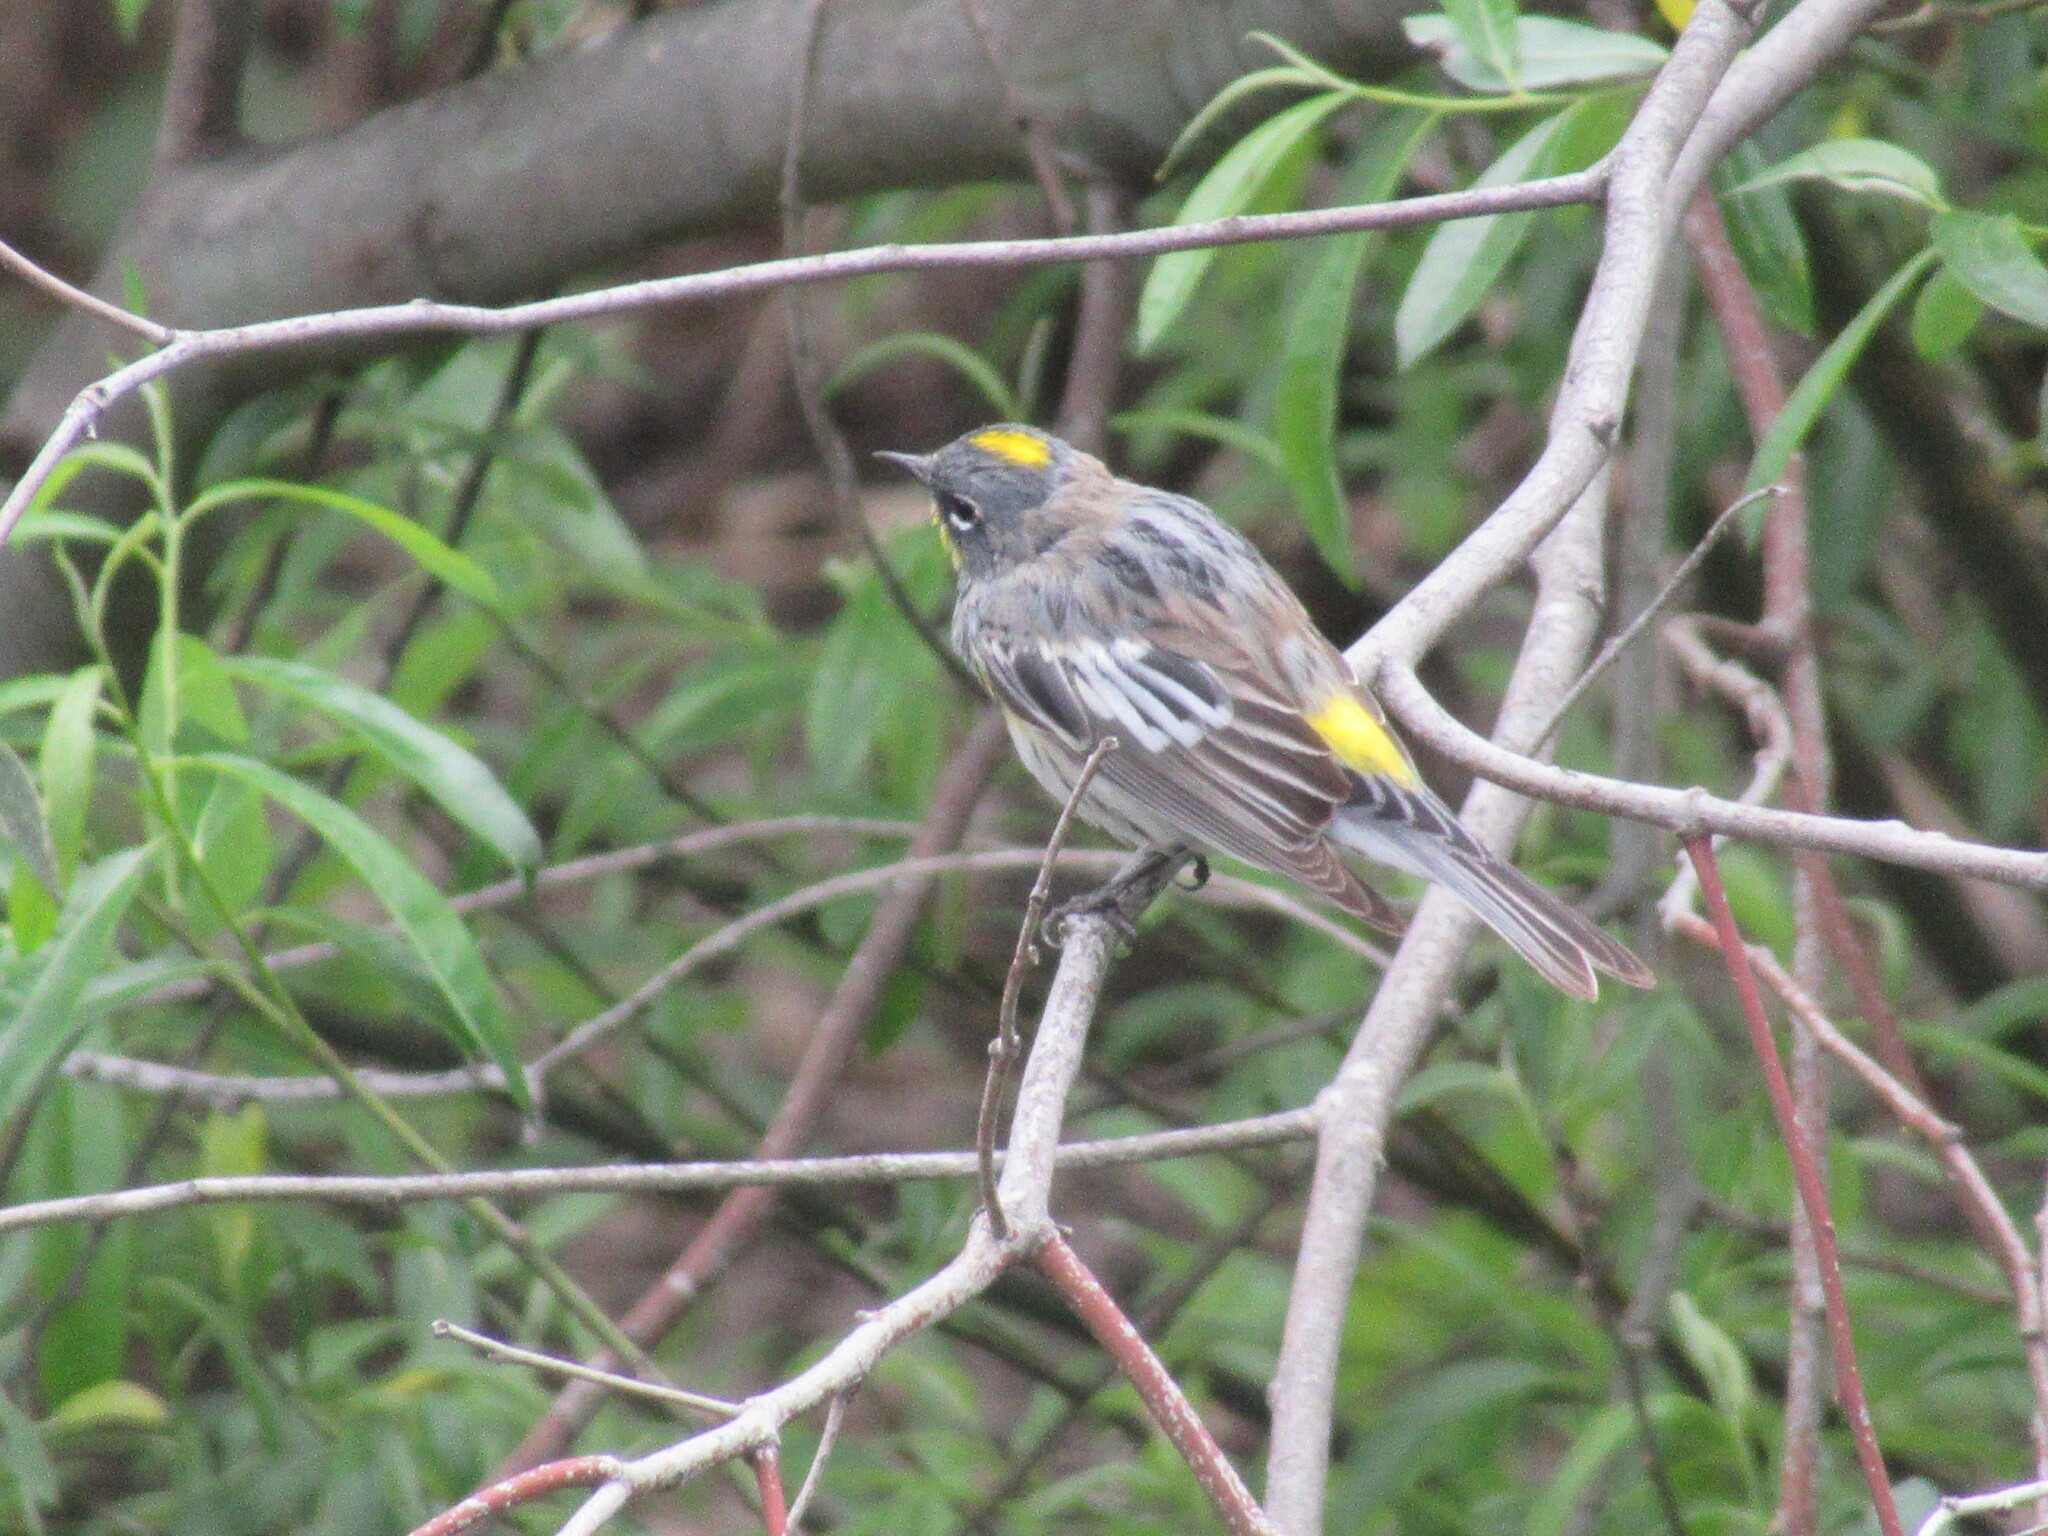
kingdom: Animalia
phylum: Chordata
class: Aves
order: Passeriformes
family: Parulidae
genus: Setophaga
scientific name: Setophaga auduboni
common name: Audubon's warbler
